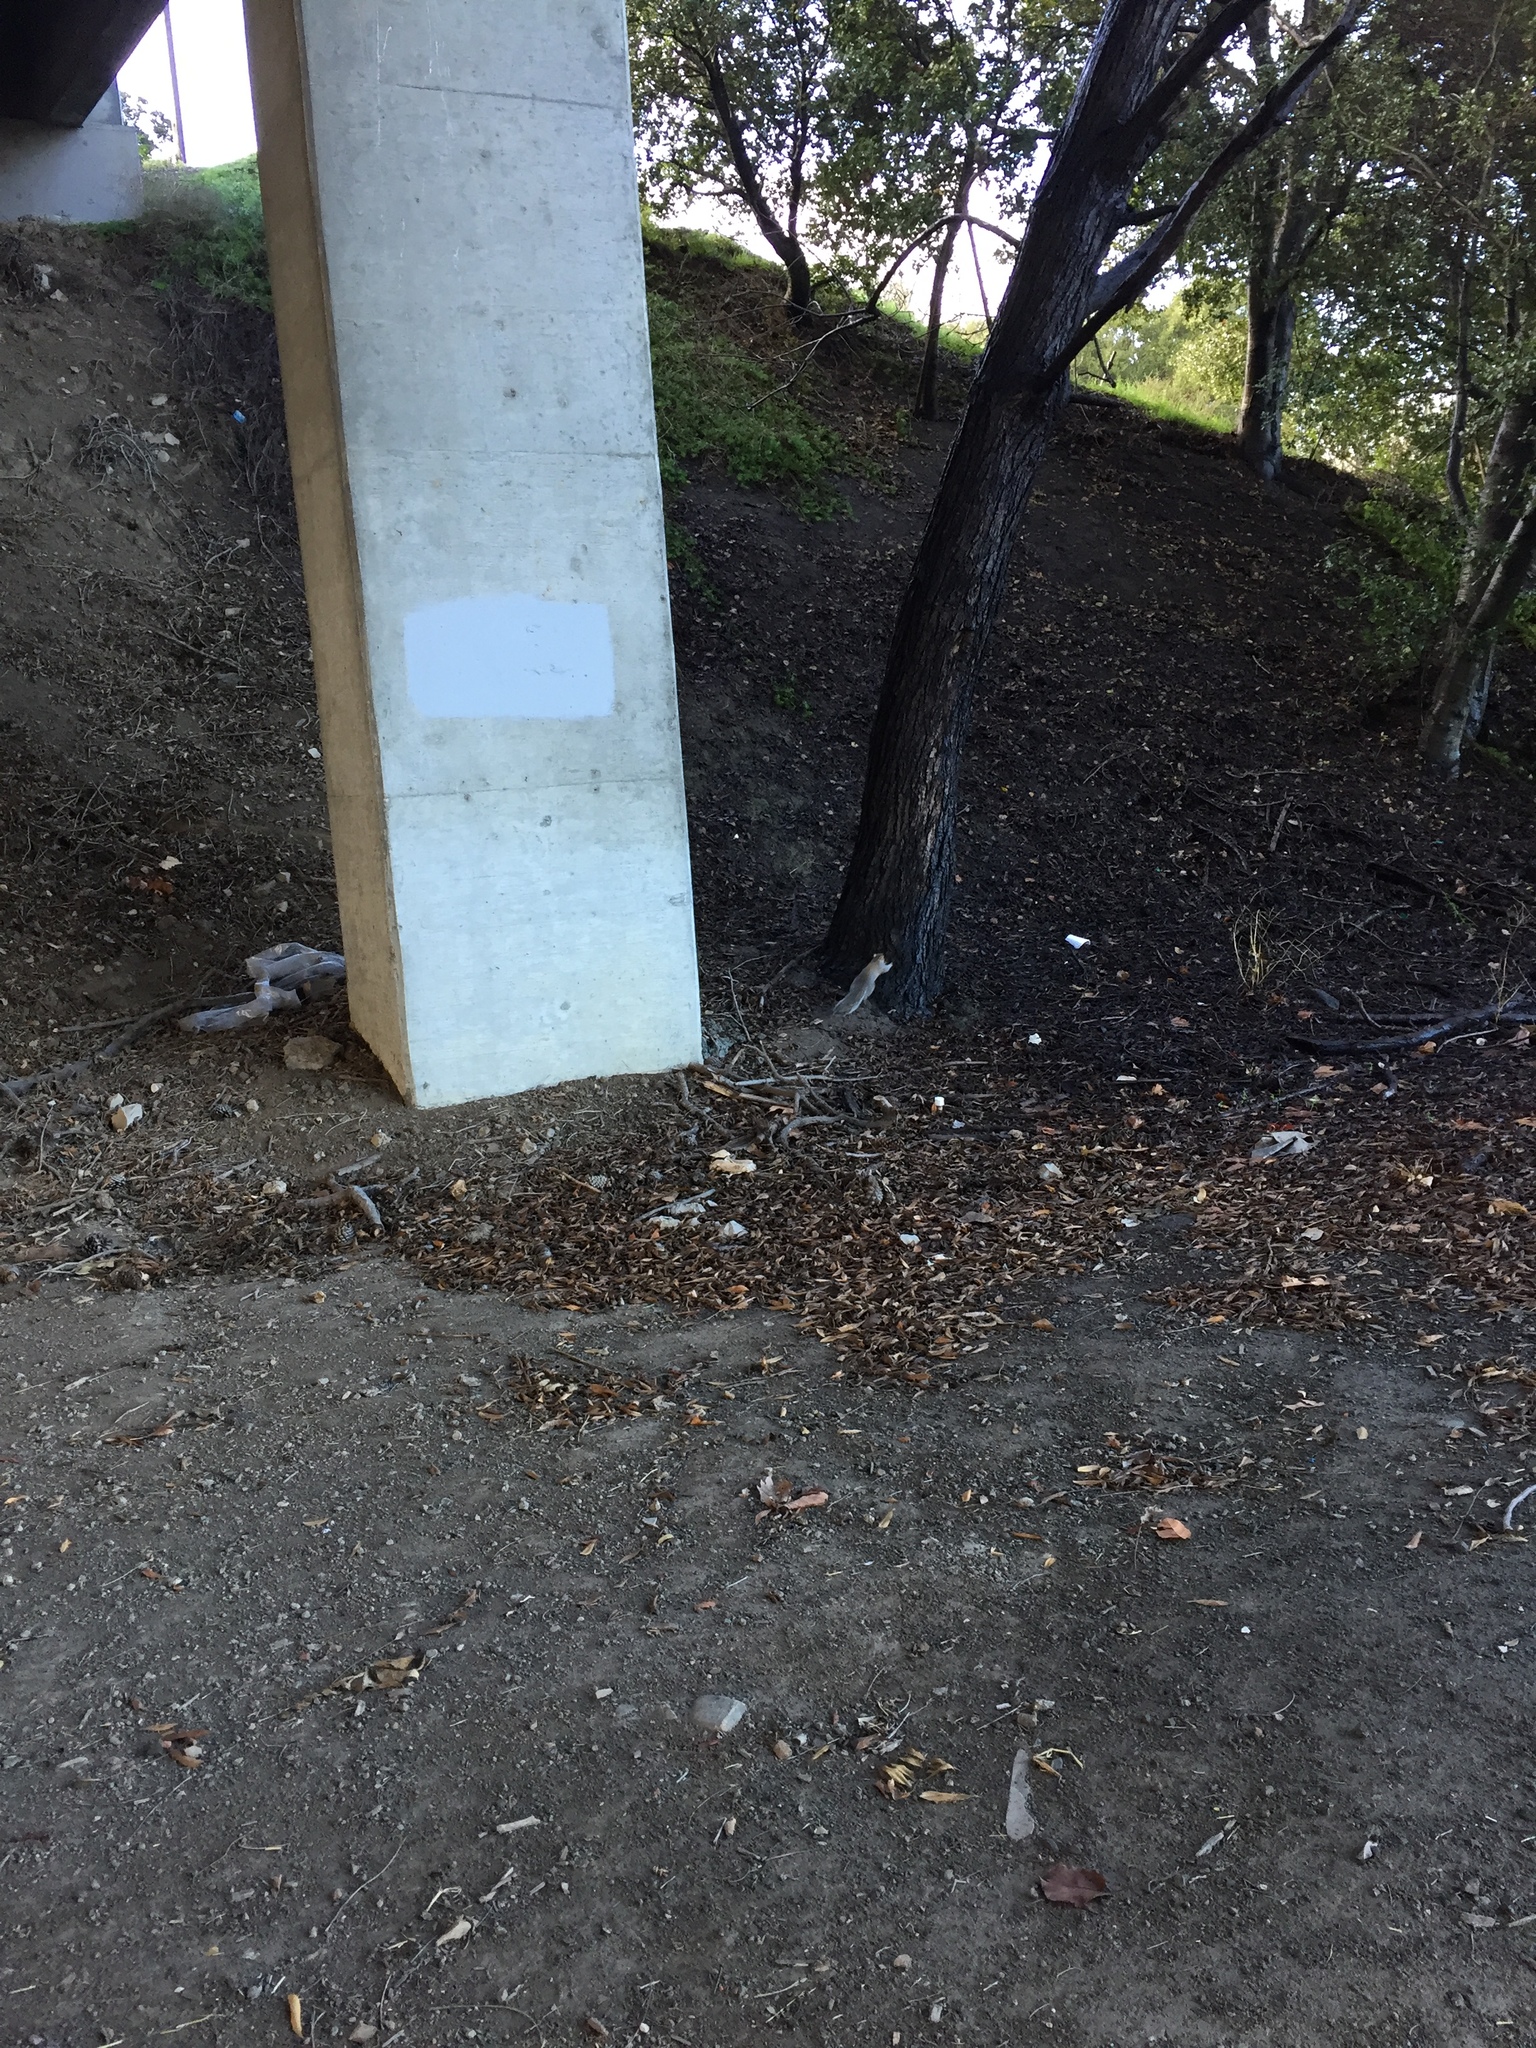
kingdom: Animalia
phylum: Chordata
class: Mammalia
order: Rodentia
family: Sciuridae
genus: Sciurus
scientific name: Sciurus carolinensis
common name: Eastern gray squirrel
